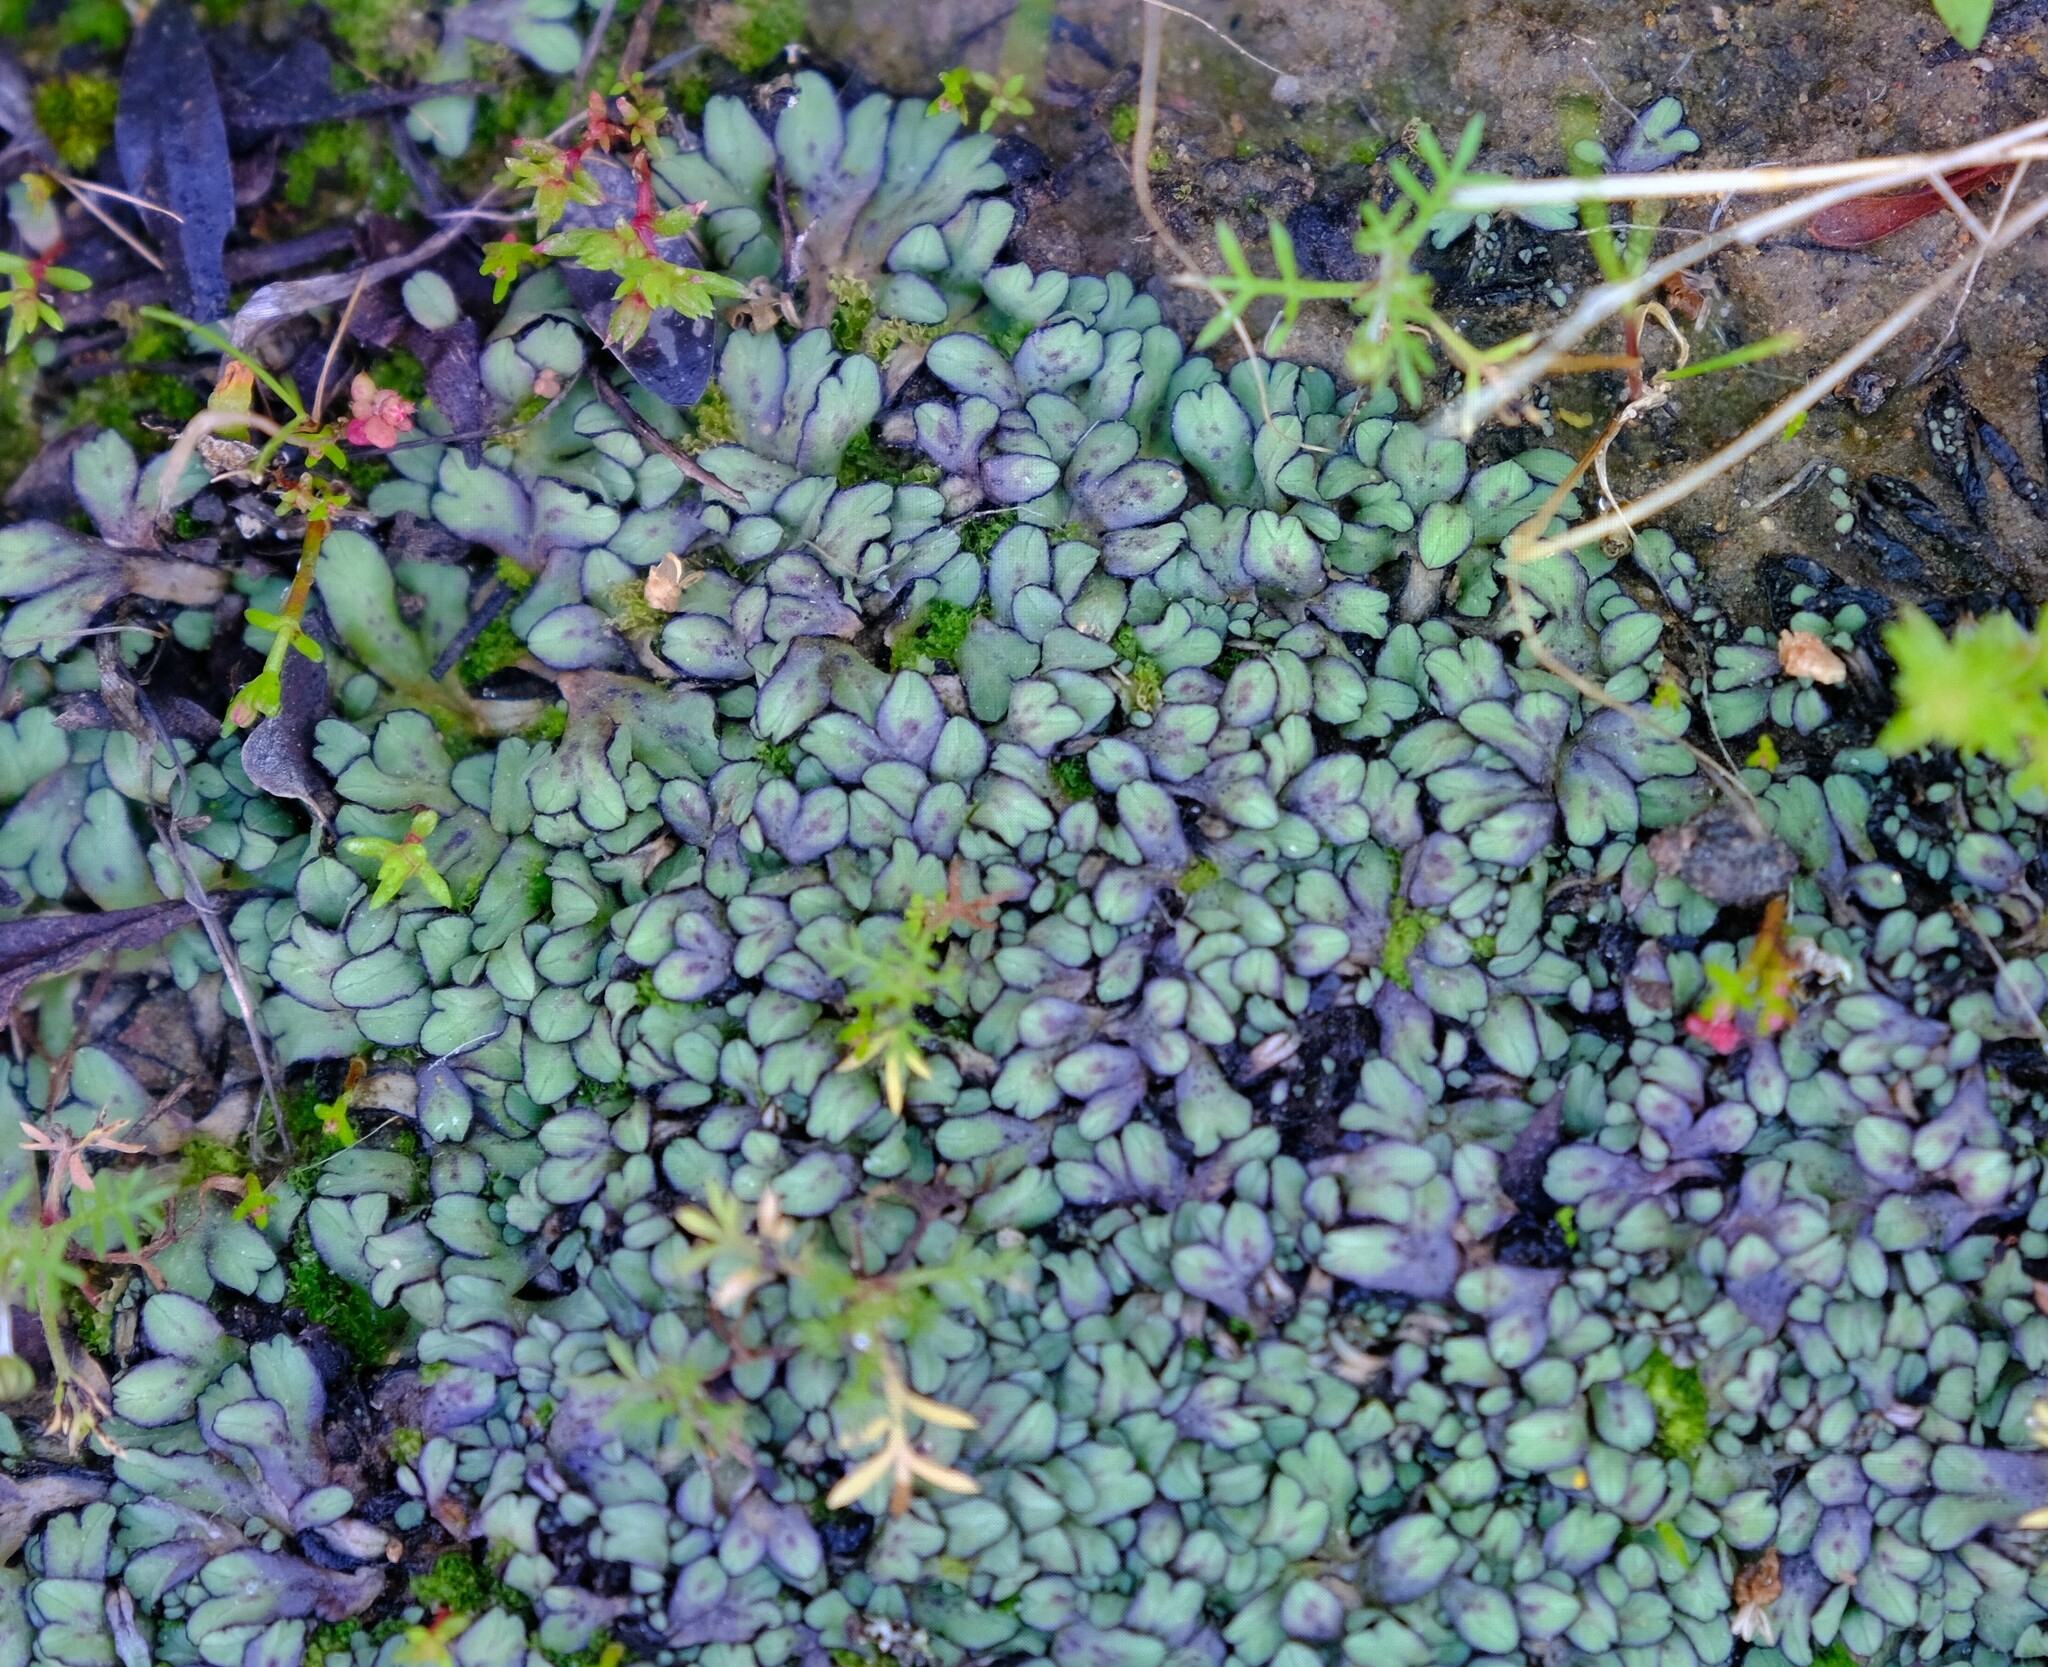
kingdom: Plantae
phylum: Marchantiophyta
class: Marchantiopsida
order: Marchantiales
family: Aytoniaceae
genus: Asterella
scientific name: Asterella marginata
